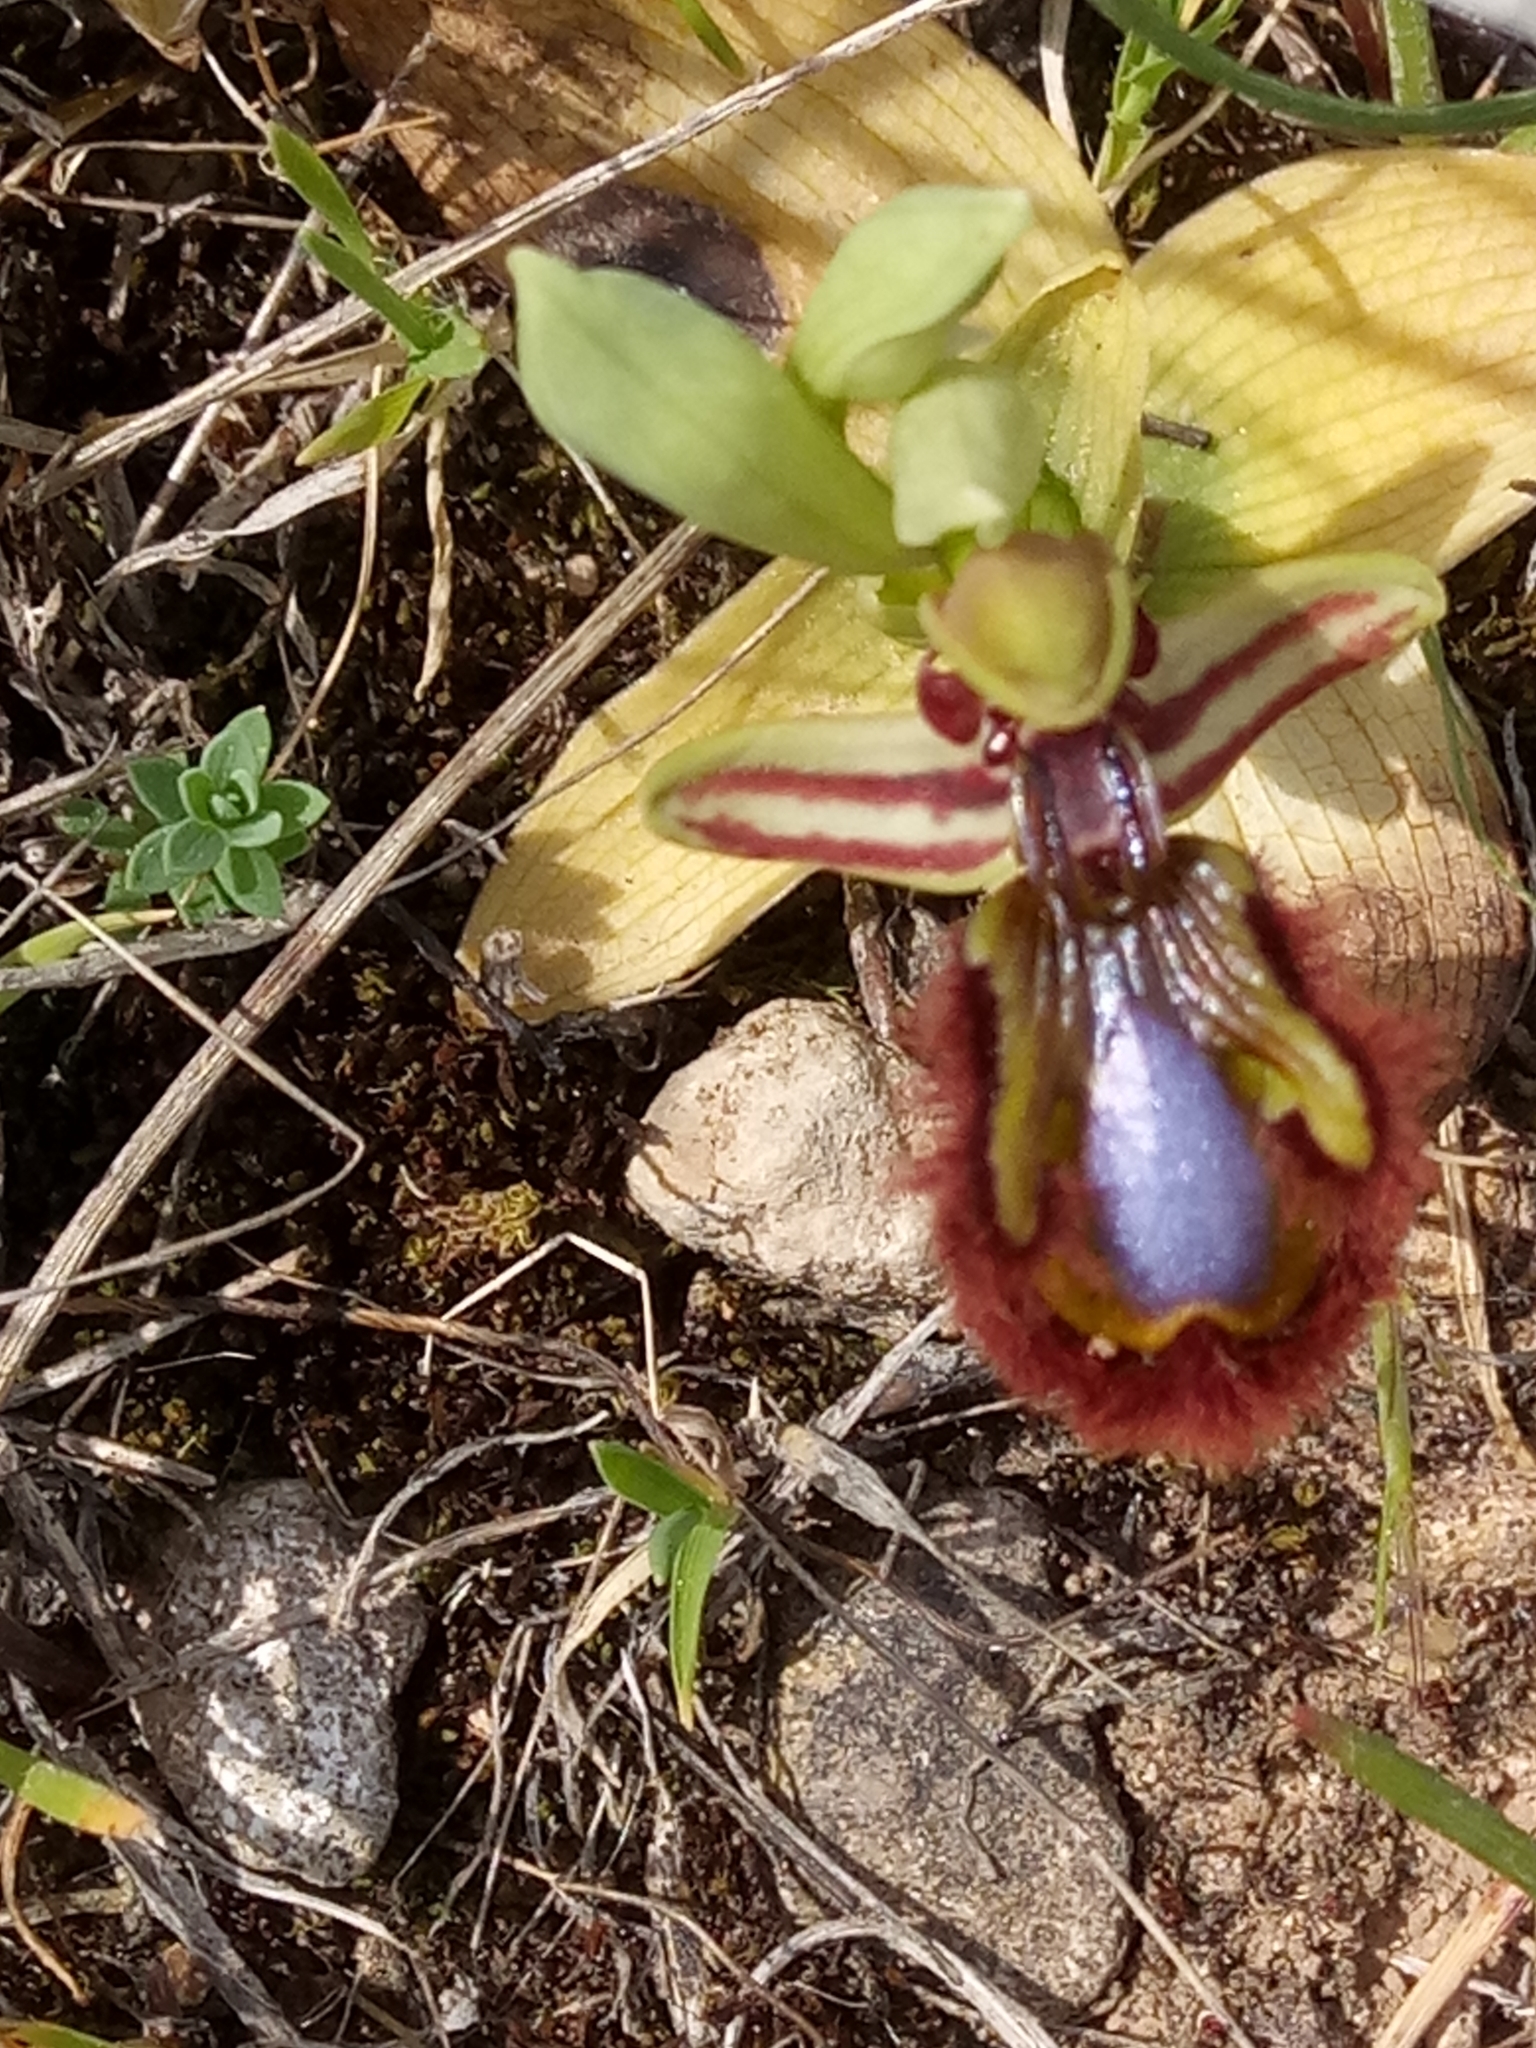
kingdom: Plantae
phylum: Tracheophyta
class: Liliopsida
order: Asparagales
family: Orchidaceae
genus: Ophrys
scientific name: Ophrys speculum
